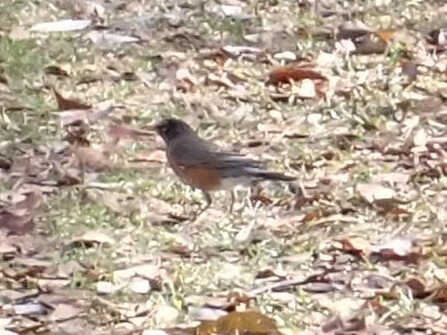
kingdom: Animalia
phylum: Chordata
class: Aves
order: Passeriformes
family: Turdidae
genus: Turdus
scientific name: Turdus migratorius
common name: American robin
